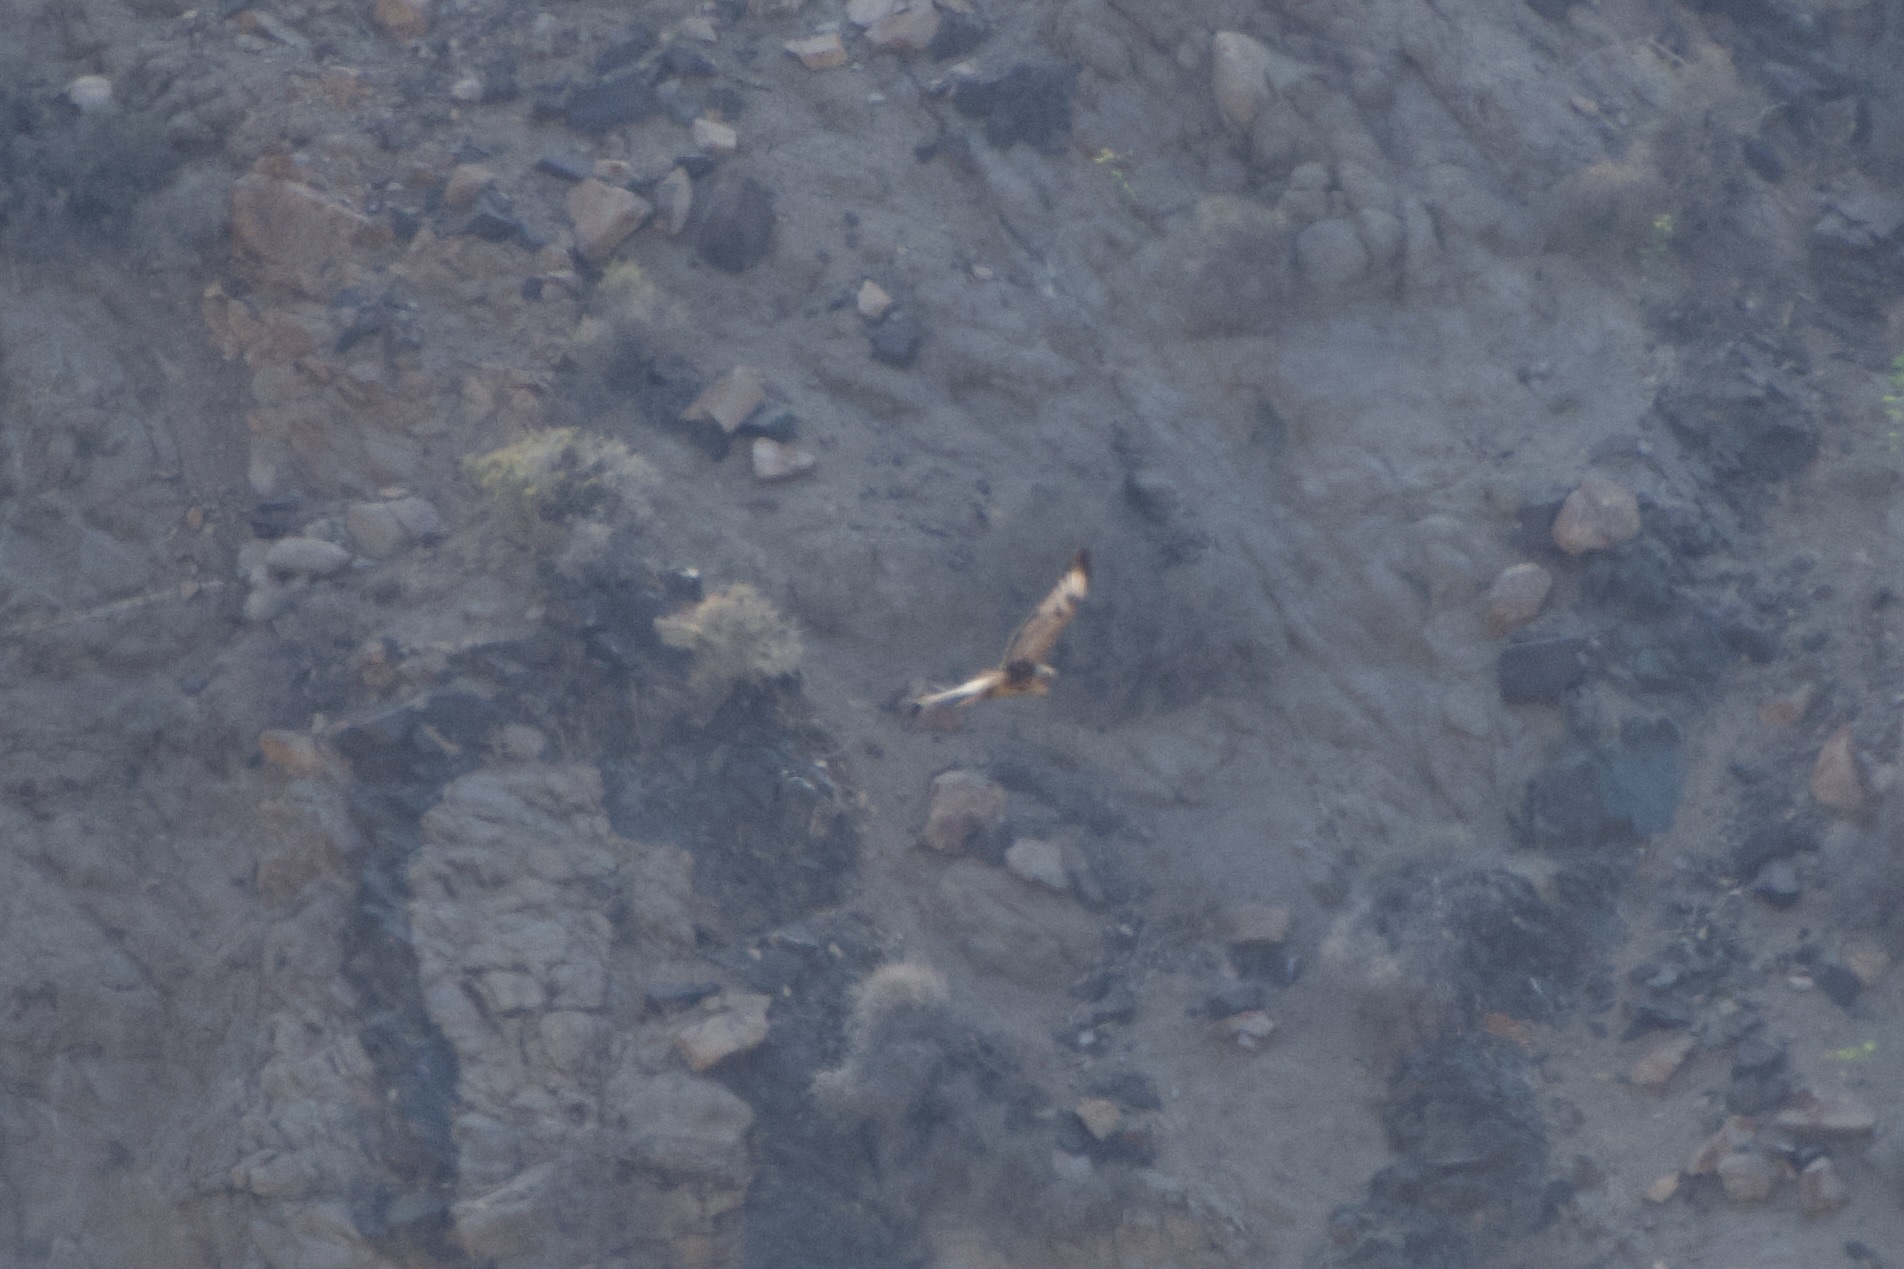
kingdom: Animalia
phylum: Chordata
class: Aves
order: Accipitriformes
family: Accipitridae
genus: Buteo
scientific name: Buteo buteo
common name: Common buzzard
